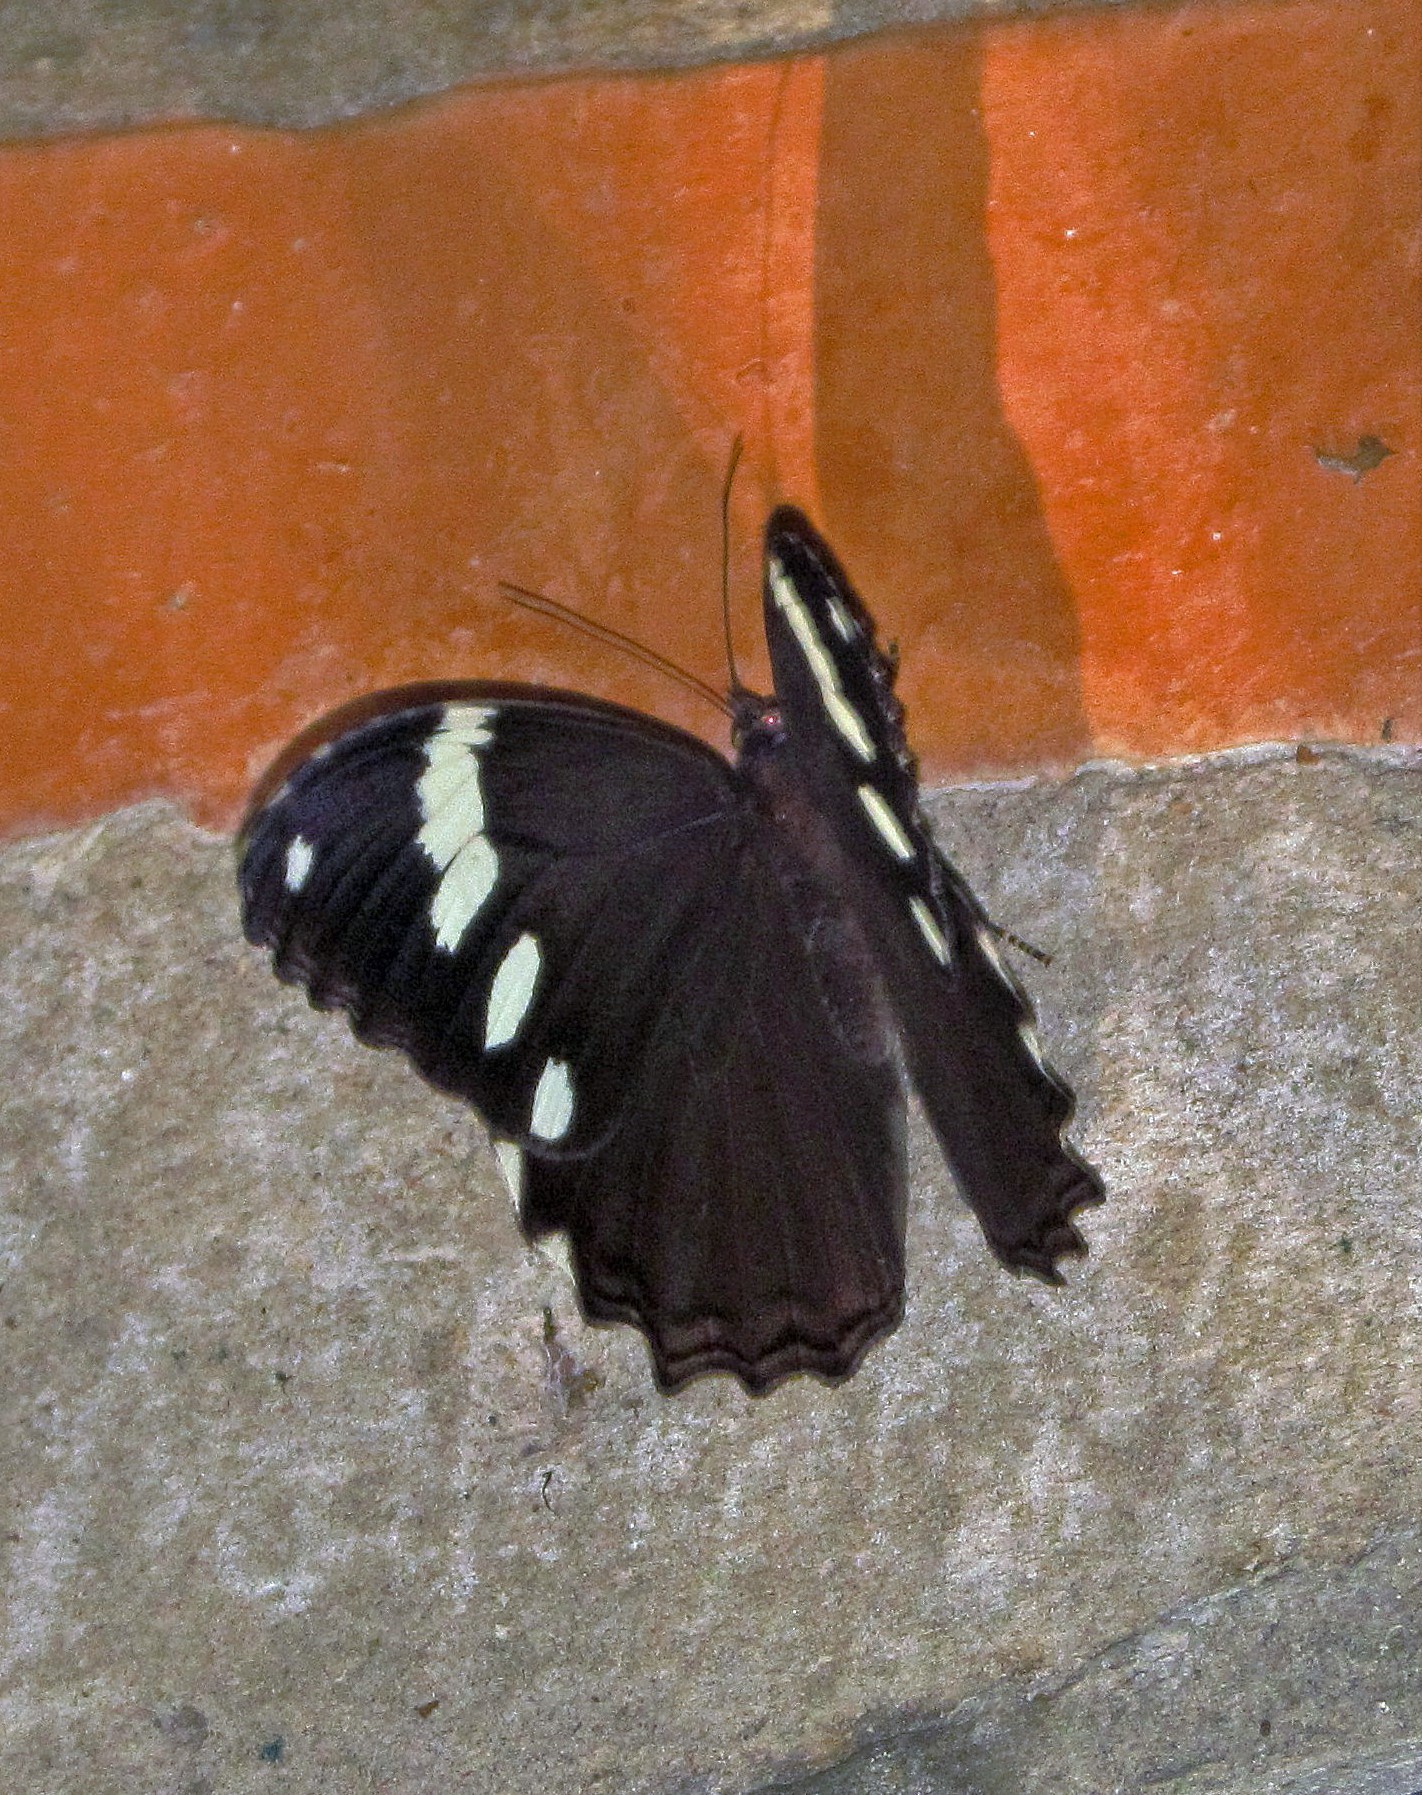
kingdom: Animalia
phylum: Arthropoda
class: Insecta
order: Lepidoptera
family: Nymphalidae
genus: Manataria
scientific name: Manataria hercyna
